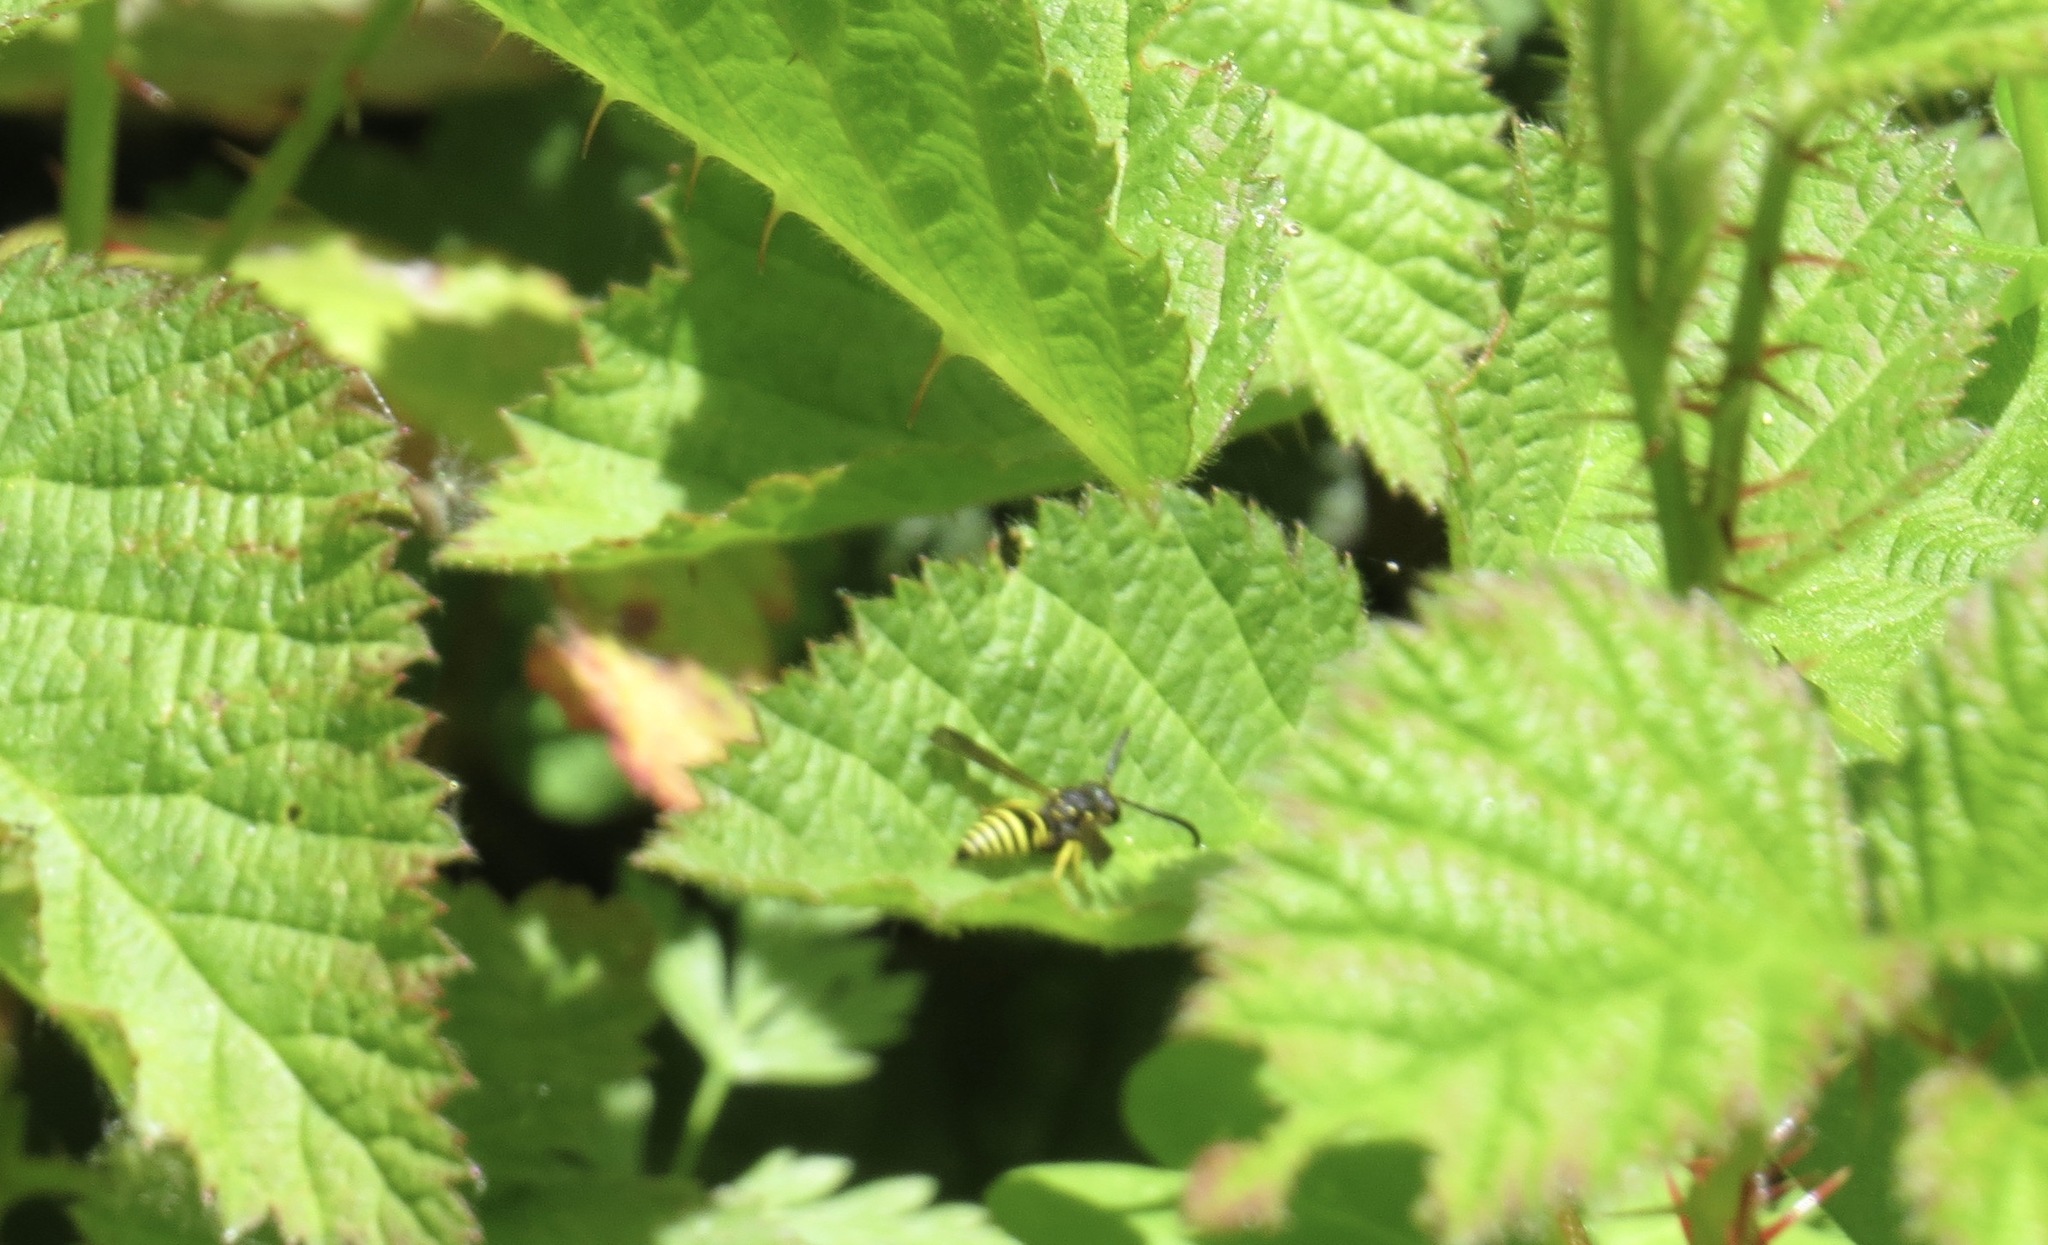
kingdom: Animalia
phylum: Arthropoda
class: Insecta
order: Hymenoptera
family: Vespidae
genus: Ancistrocerus
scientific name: Ancistrocerus
